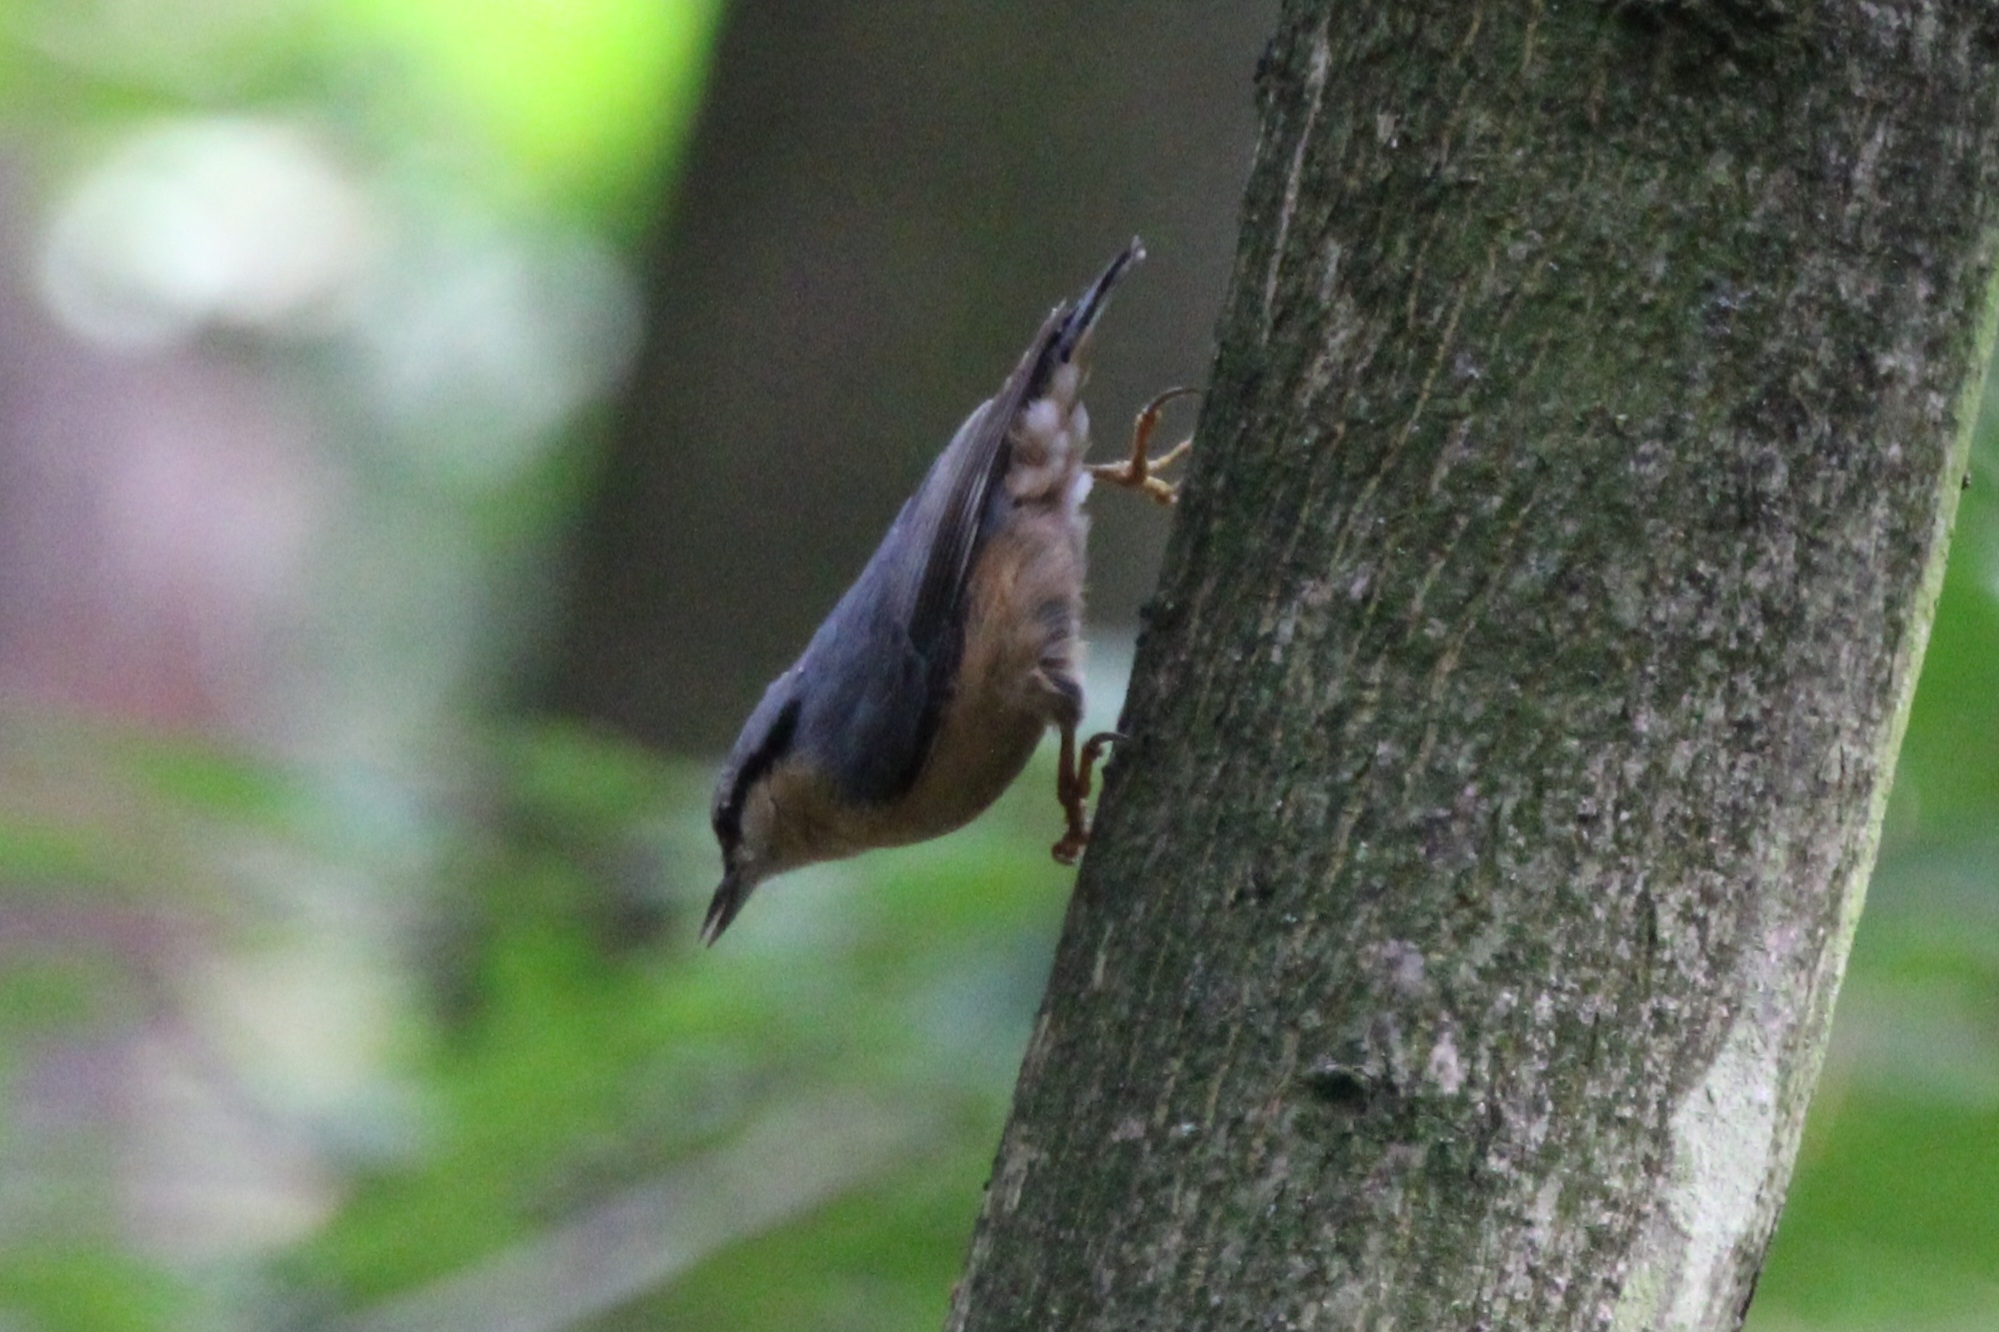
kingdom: Animalia
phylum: Chordata
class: Aves
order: Passeriformes
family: Sittidae
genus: Sitta
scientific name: Sitta europaea
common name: Eurasian nuthatch
